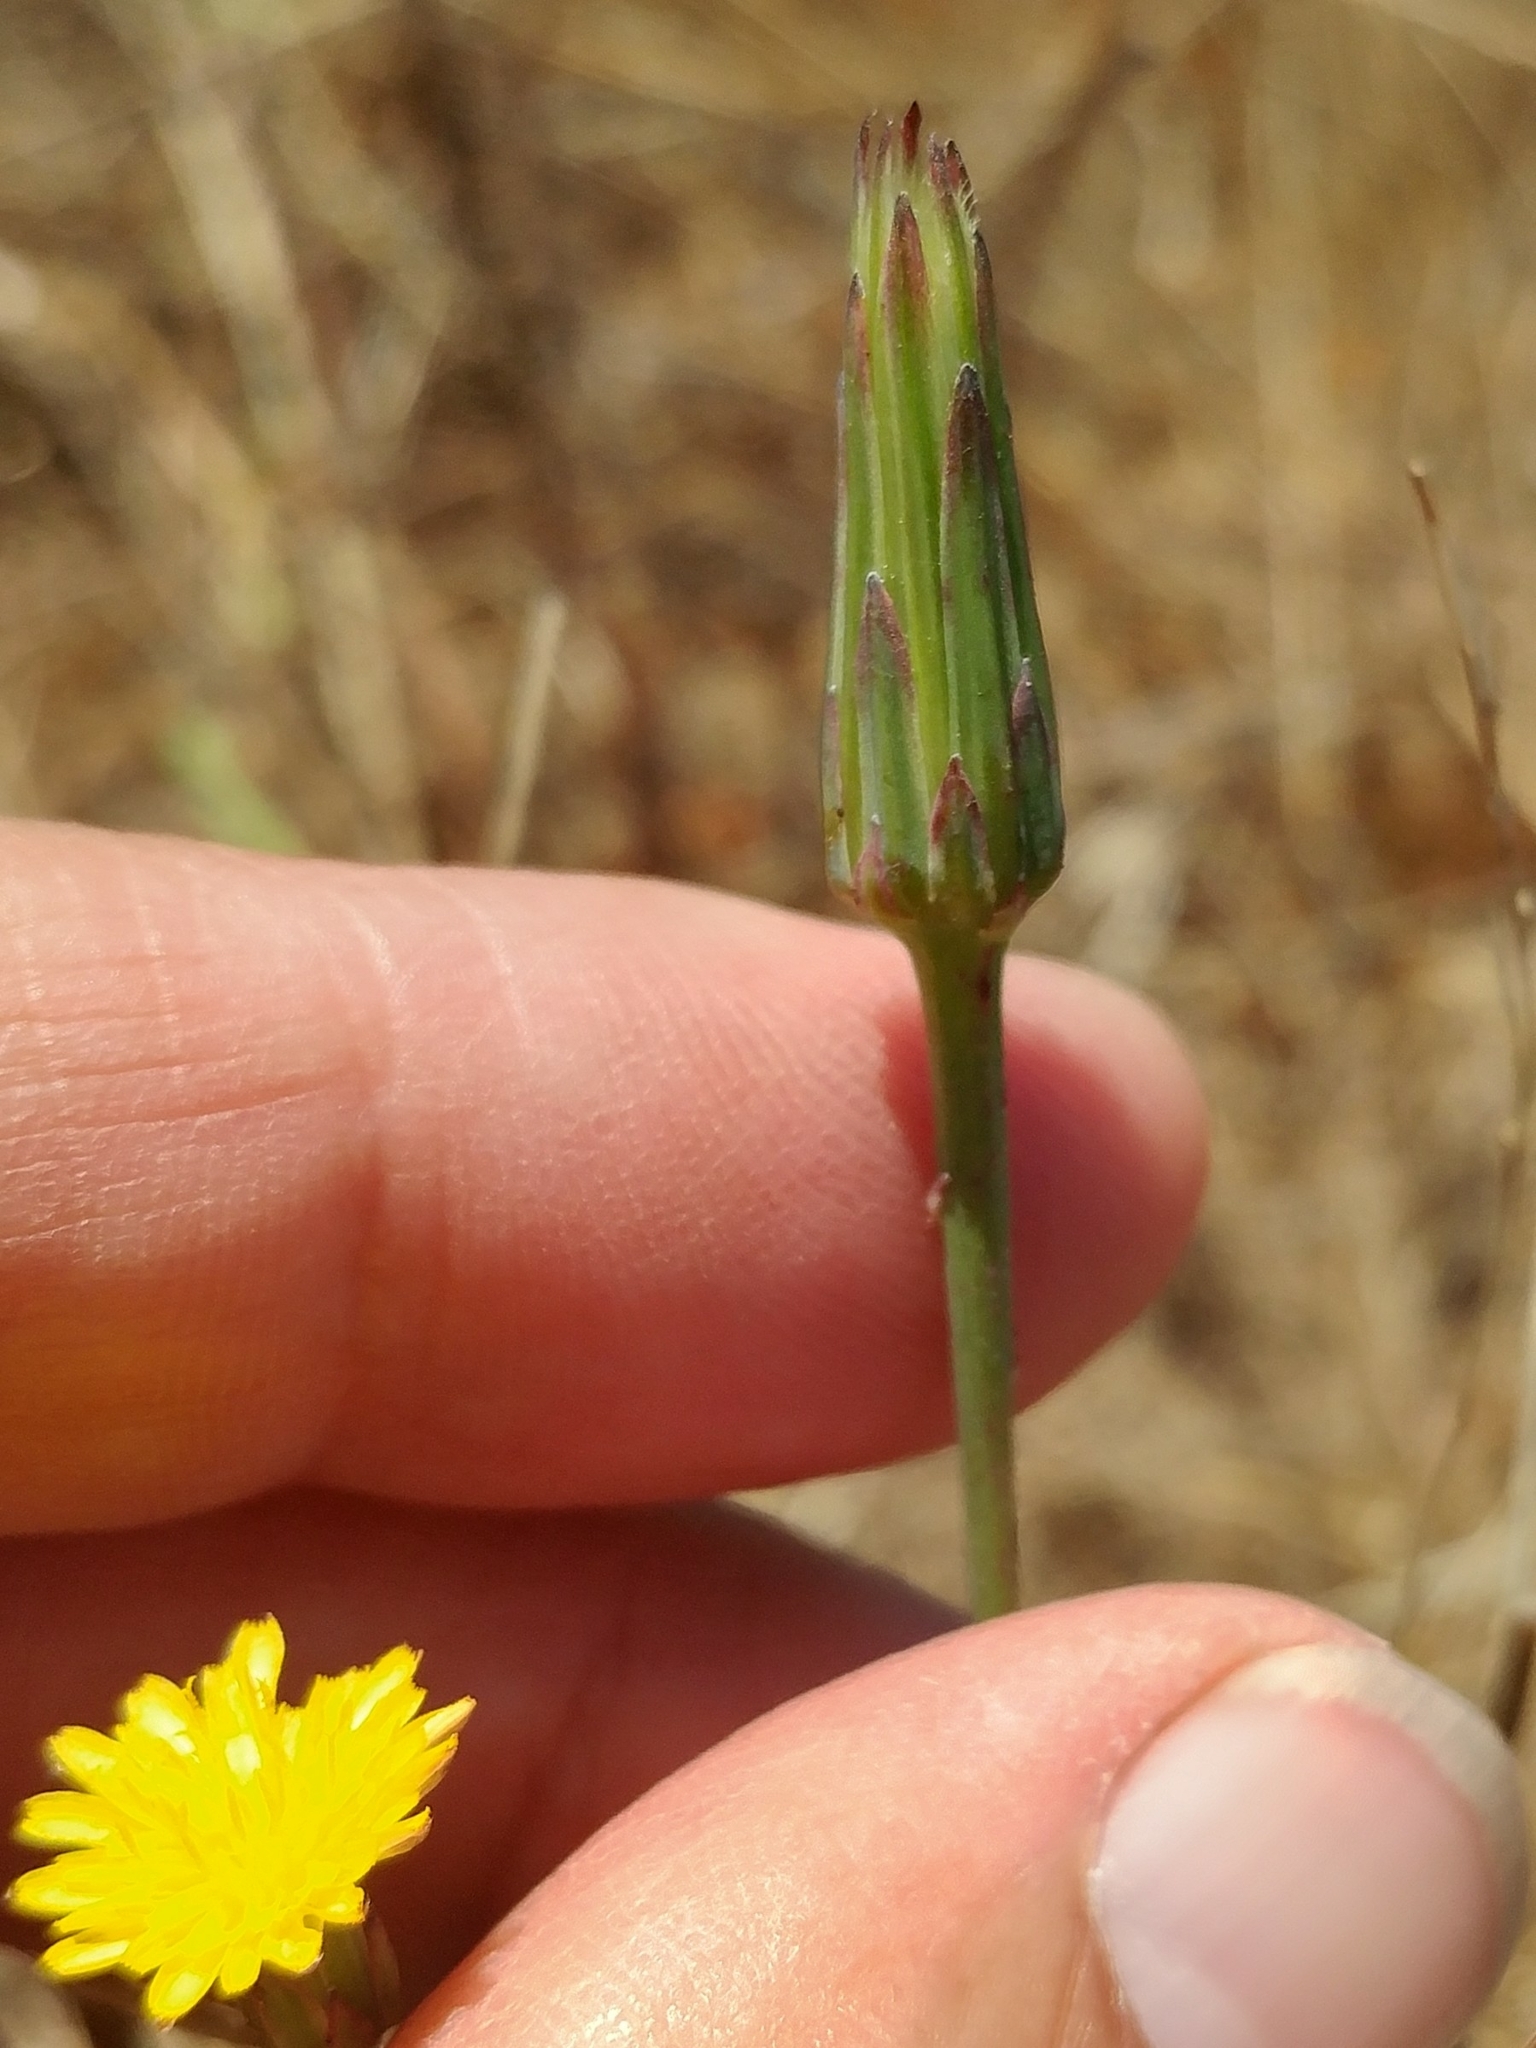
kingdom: Plantae
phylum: Tracheophyta
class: Magnoliopsida
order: Asterales
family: Asteraceae
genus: Hypochaeris
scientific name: Hypochaeris glabra
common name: Smooth catsear
